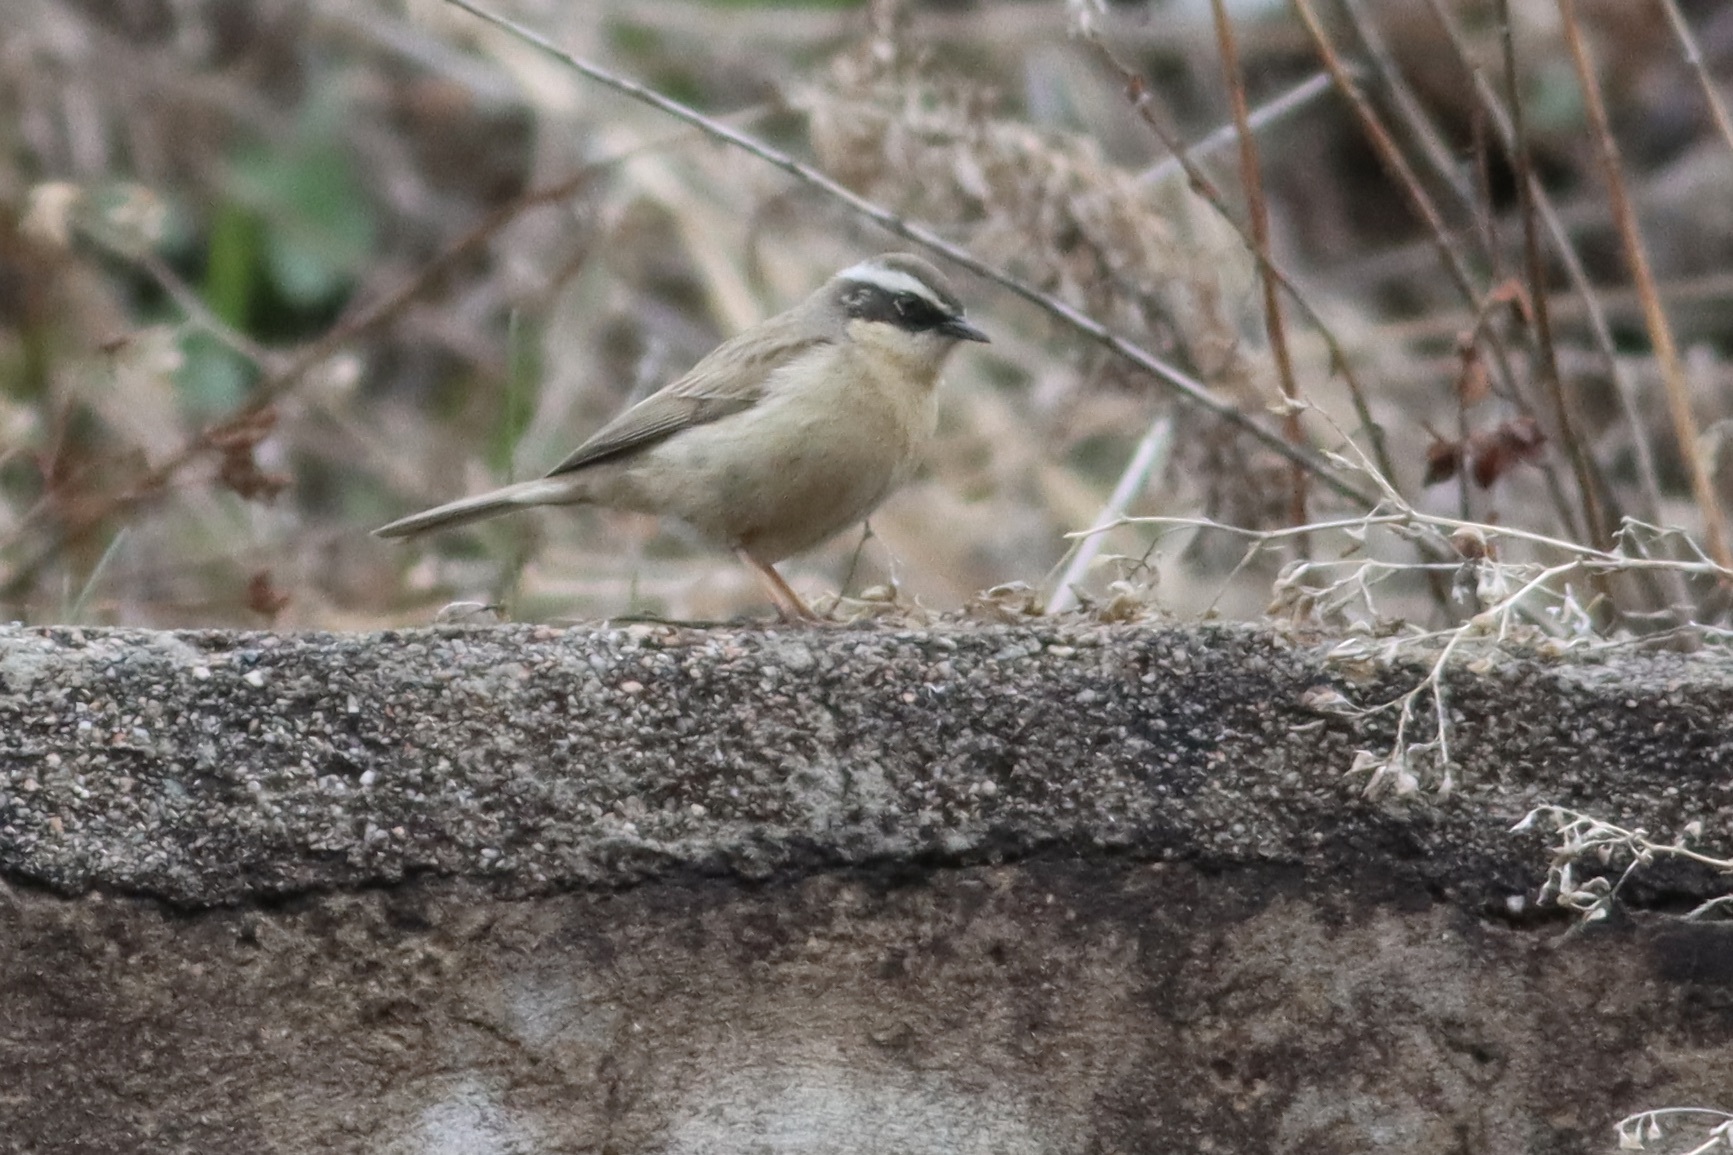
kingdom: Animalia
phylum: Chordata
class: Aves
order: Passeriformes
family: Prunellidae
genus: Prunella
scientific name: Prunella fulvescens
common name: Brown accentor
